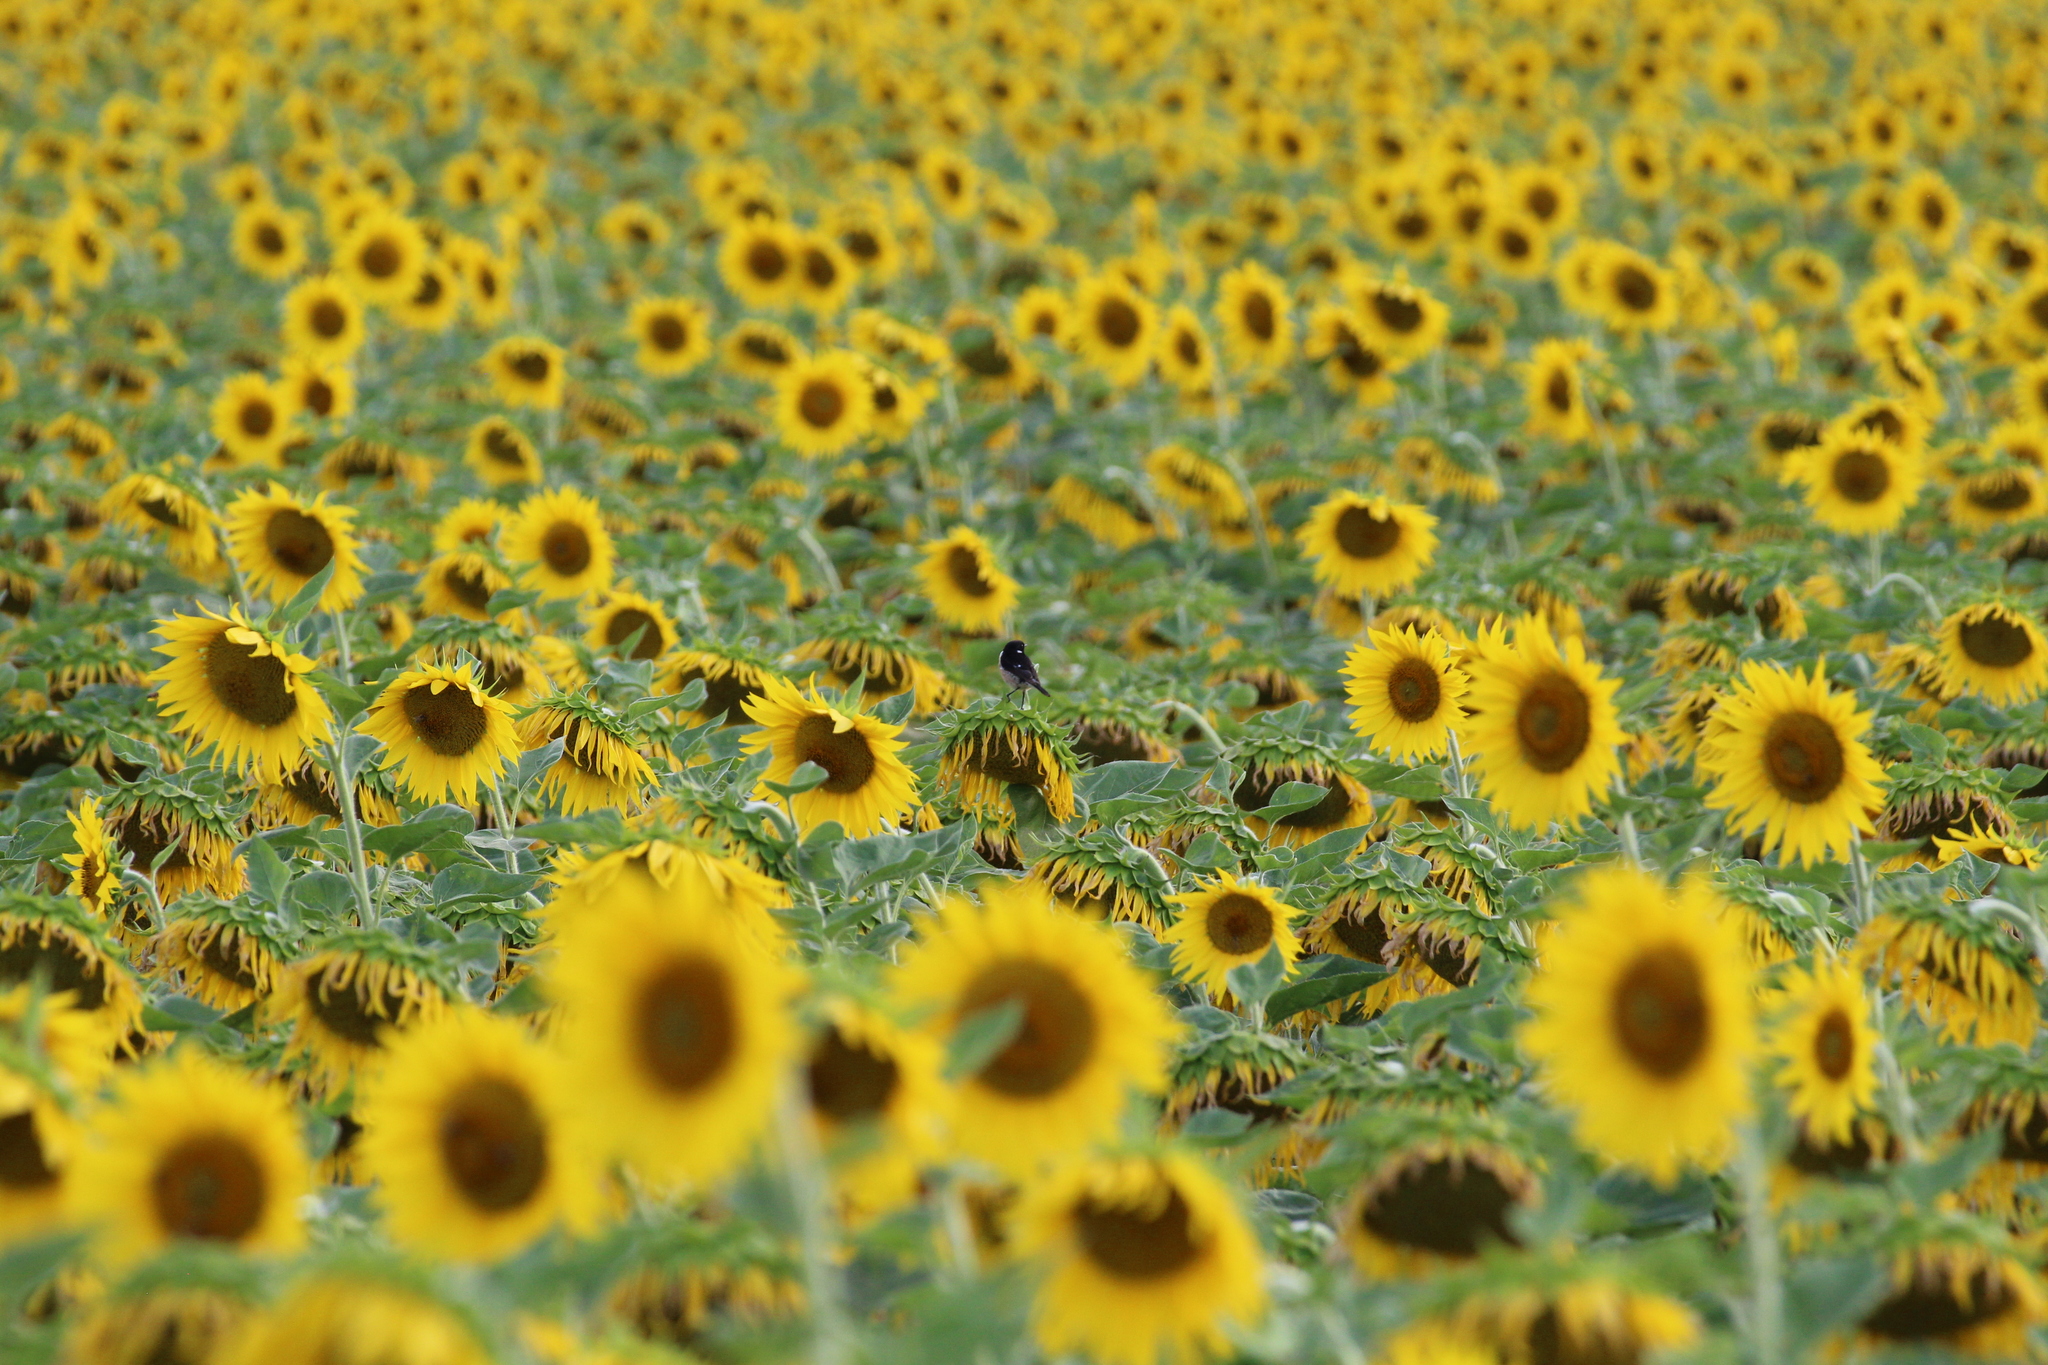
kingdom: Animalia
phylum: Chordata
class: Aves
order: Passeriformes
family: Muscicapidae
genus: Saxicola
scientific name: Saxicola rubicola
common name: European stonechat
